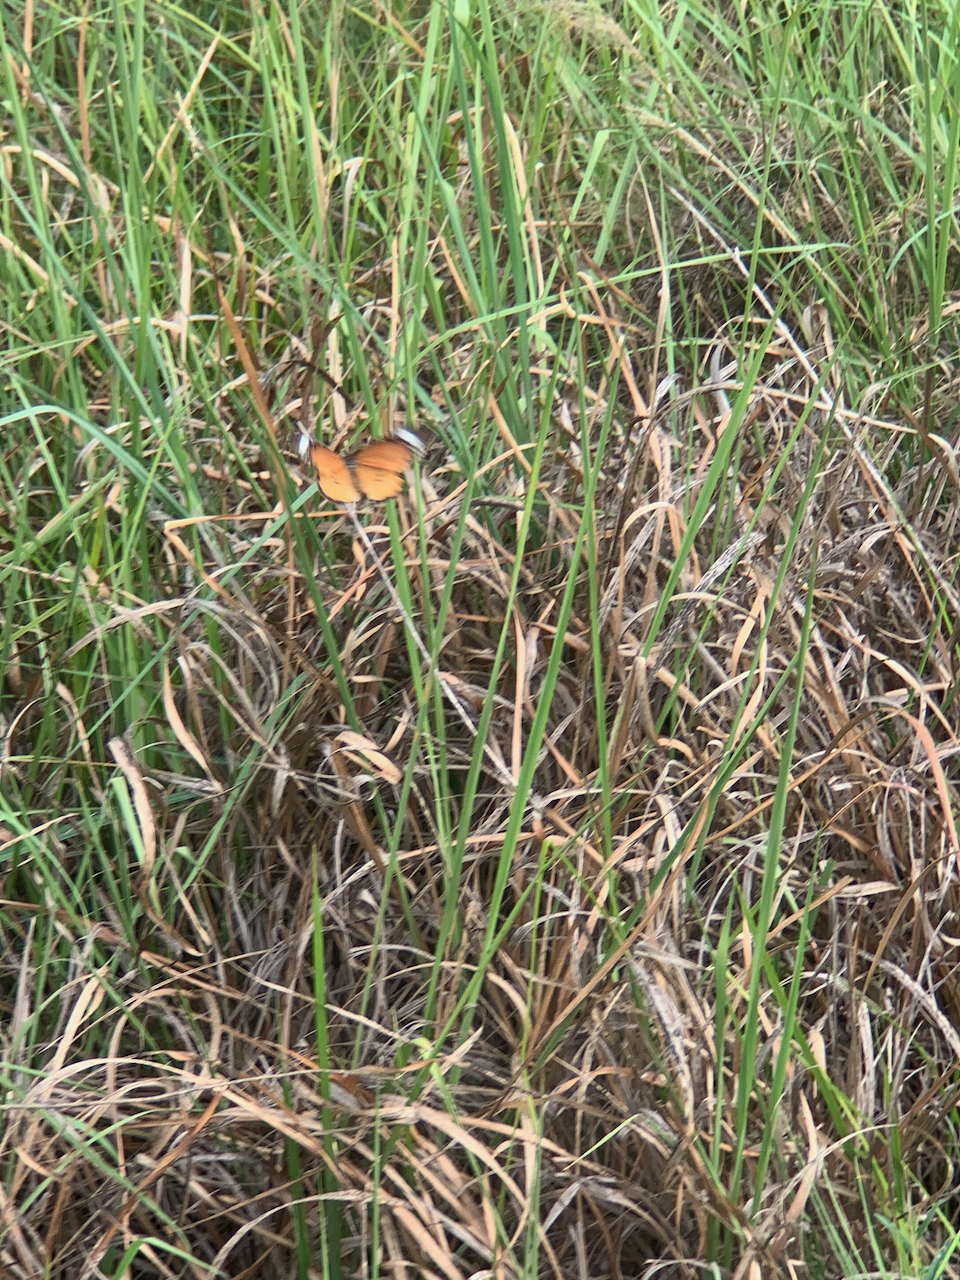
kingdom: Animalia
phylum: Arthropoda
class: Insecta
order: Lepidoptera
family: Nymphalidae
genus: Danaus
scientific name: Danaus chrysippus
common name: Plain tiger
